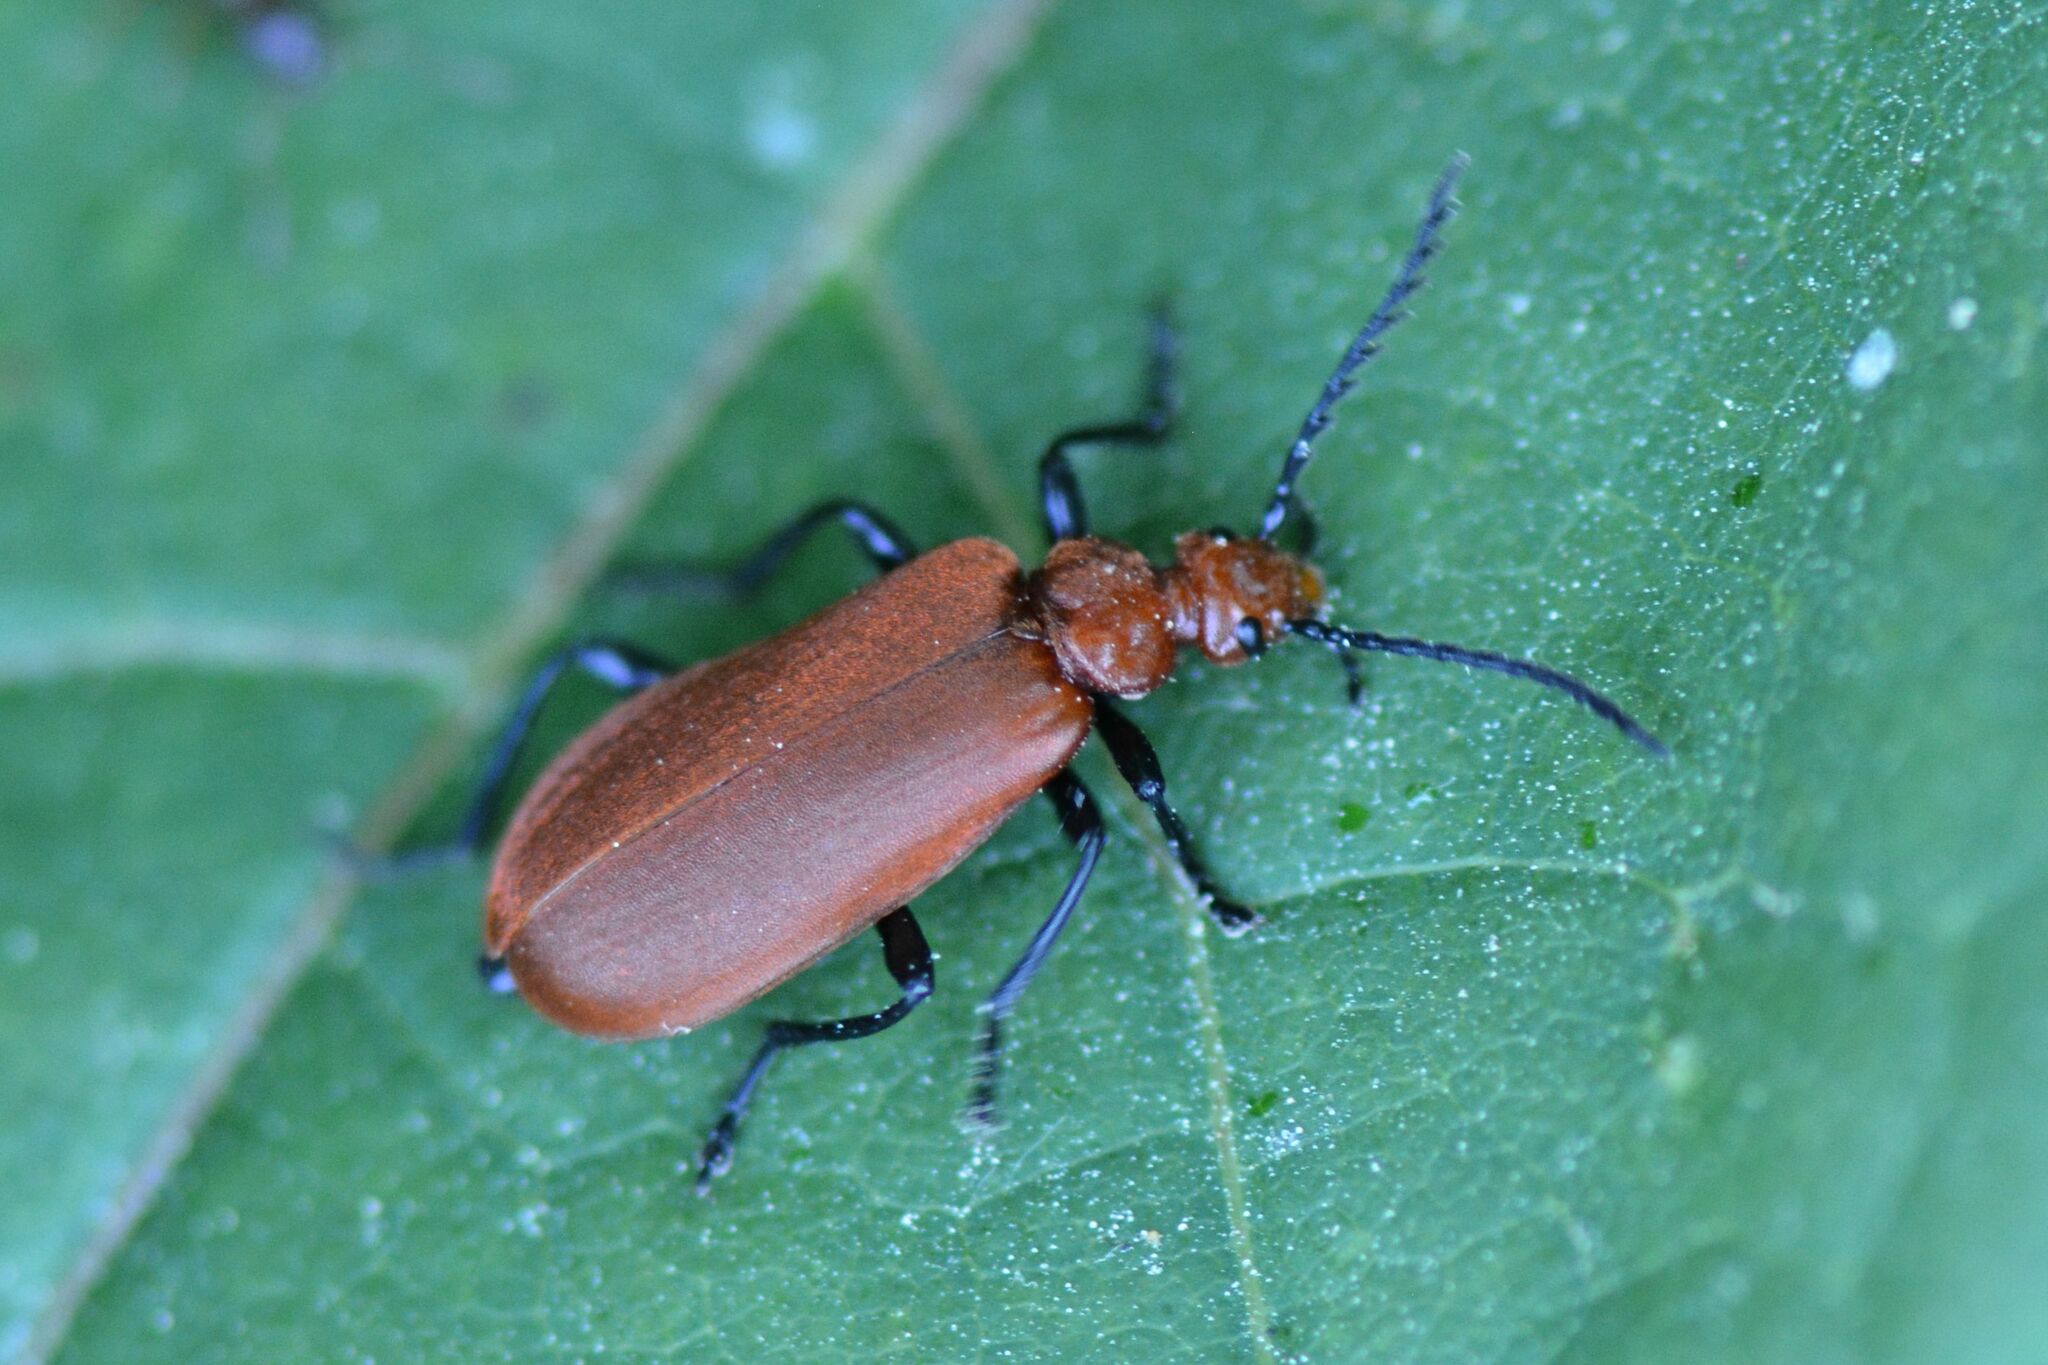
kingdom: Animalia
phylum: Arthropoda
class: Insecta
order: Coleoptera
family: Pyrochroidae
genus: Pyrochroa
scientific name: Pyrochroa serraticornis
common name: Red-headed cardinal beetle
